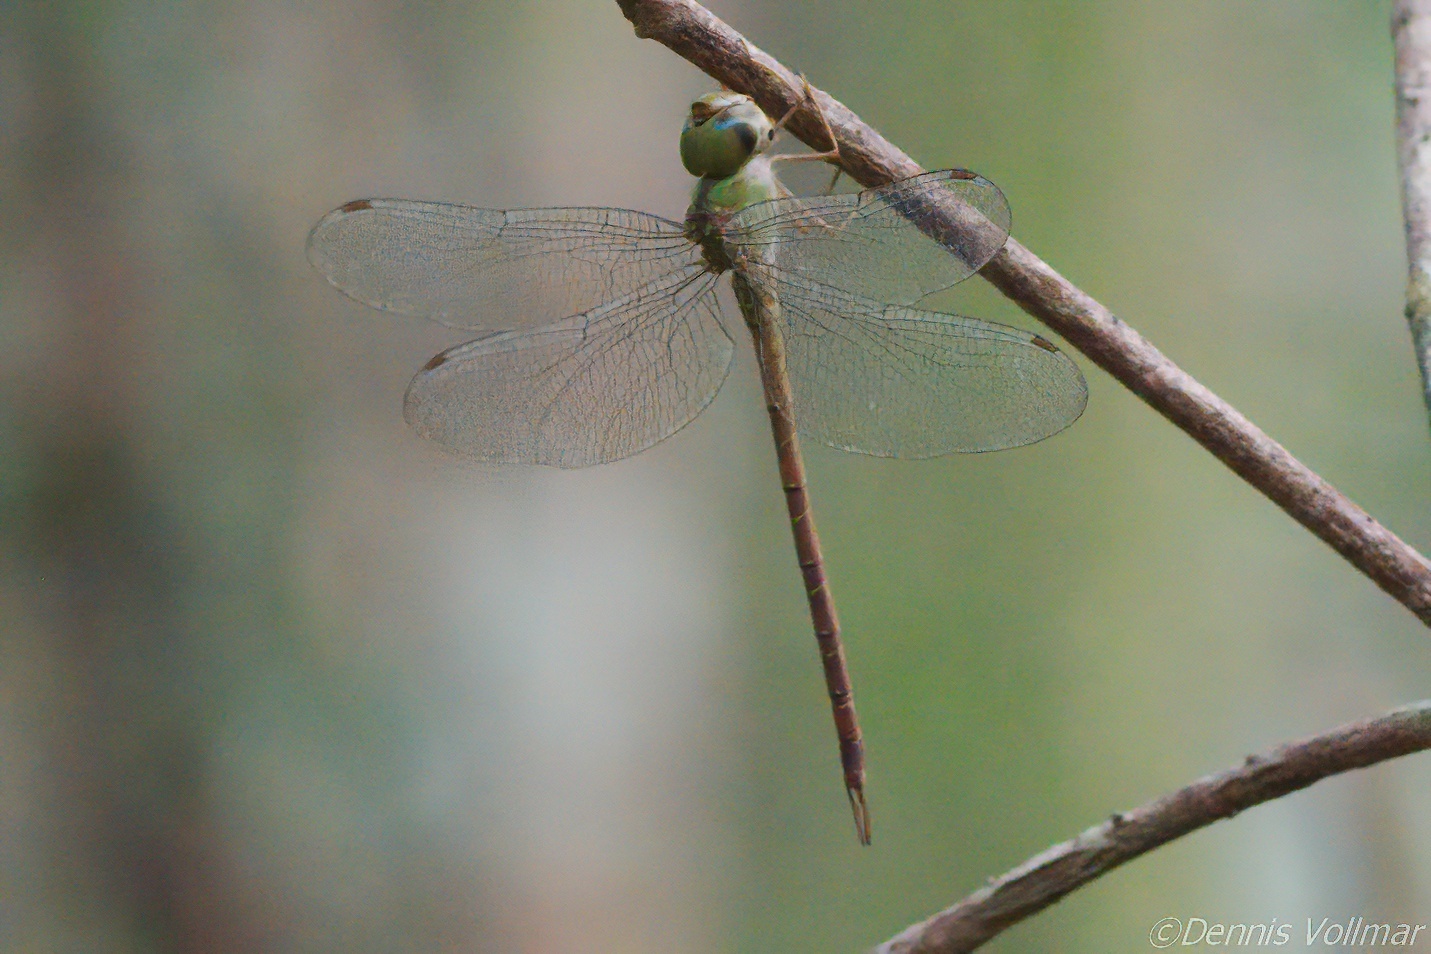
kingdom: Animalia
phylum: Arthropoda
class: Insecta
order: Odonata
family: Aeshnidae
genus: Triacanthagyna
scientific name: Triacanthagyna septima
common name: Pale-green darner
